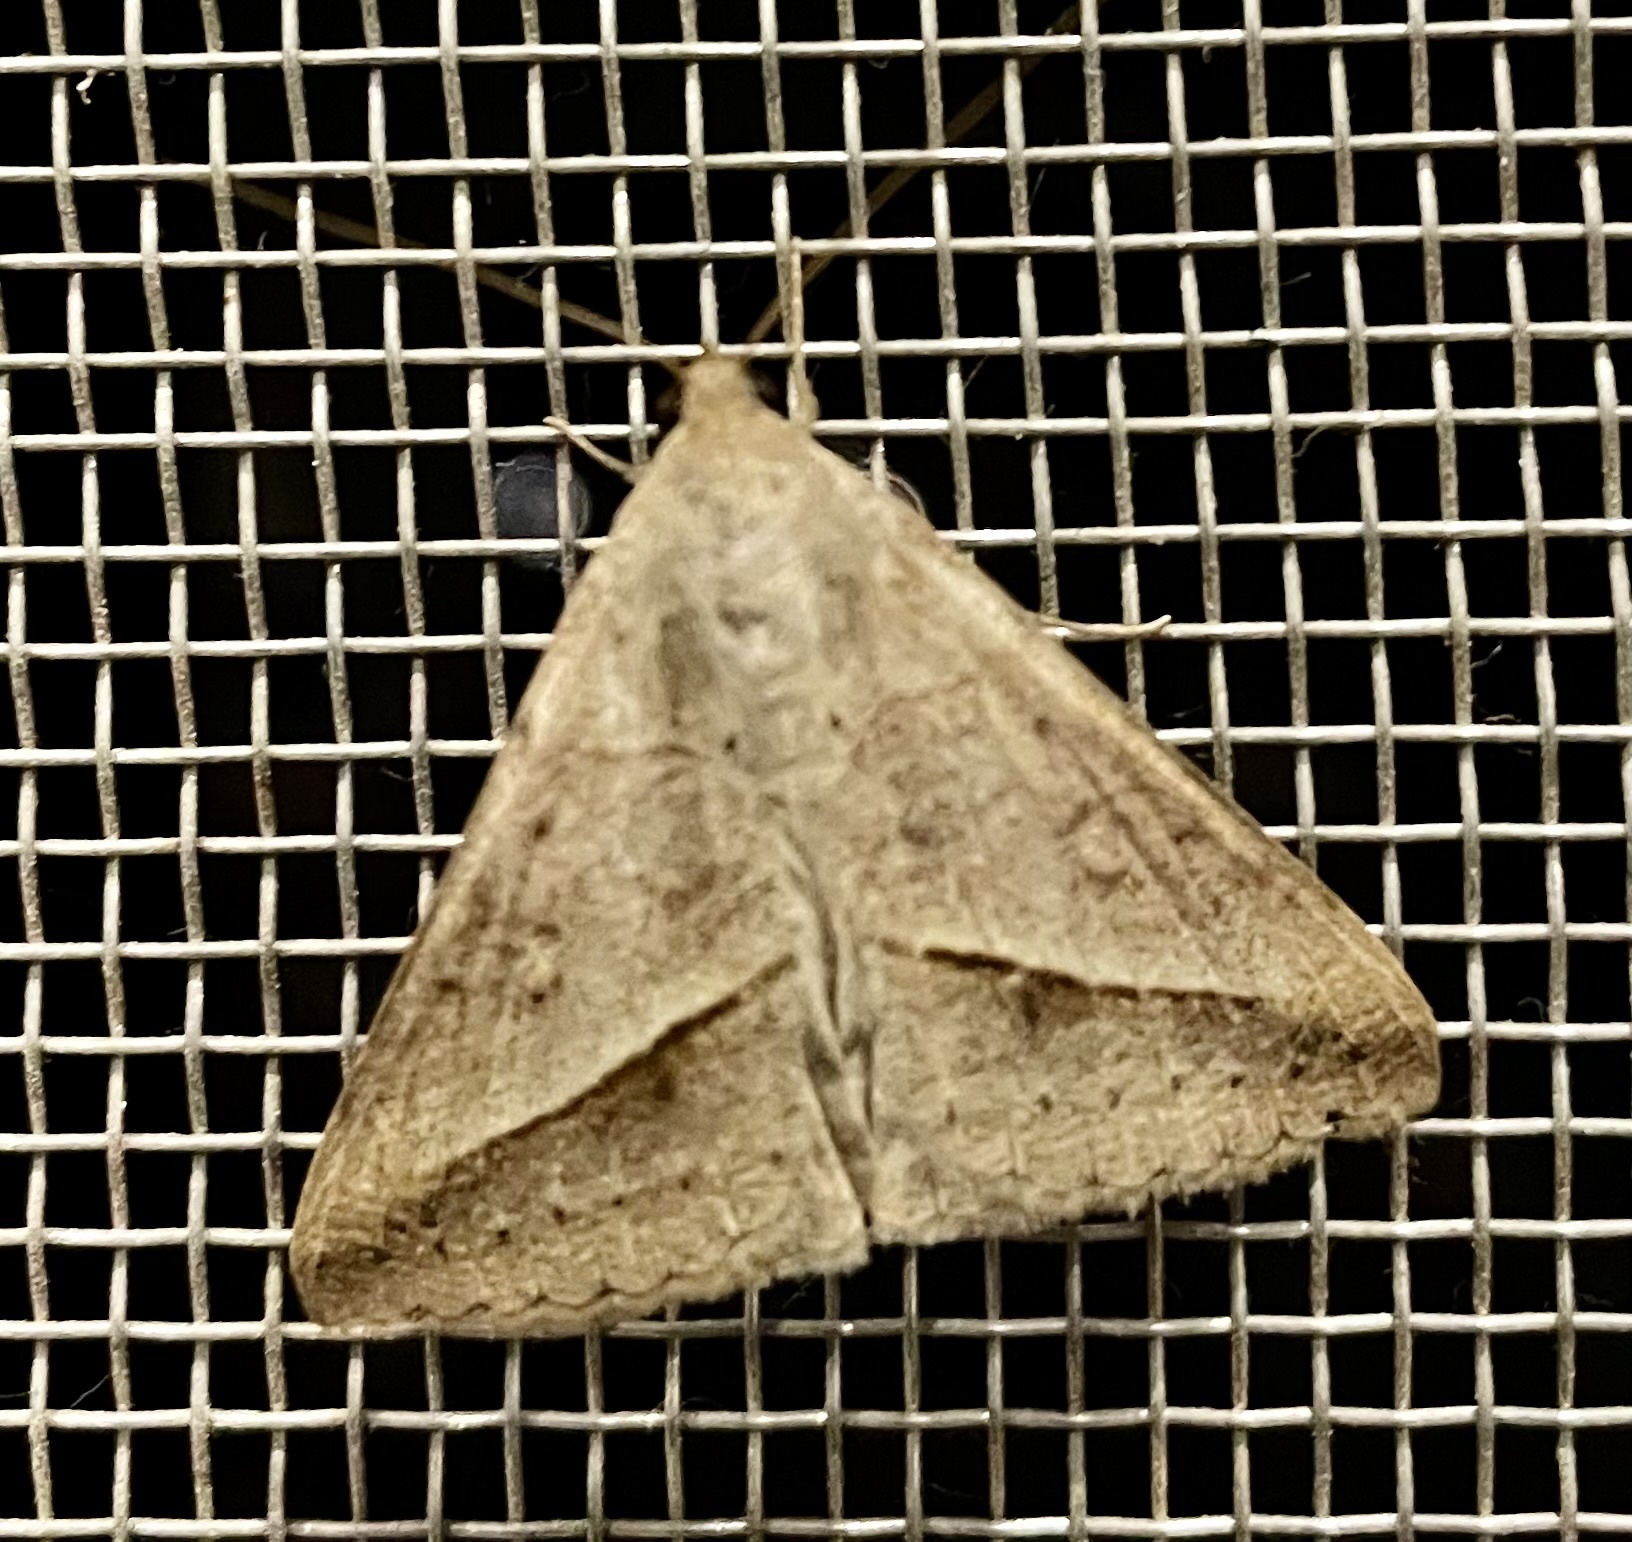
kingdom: Animalia
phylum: Arthropoda
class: Insecta
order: Lepidoptera
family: Erebidae
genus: Mocis
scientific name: Mocis frugalis
